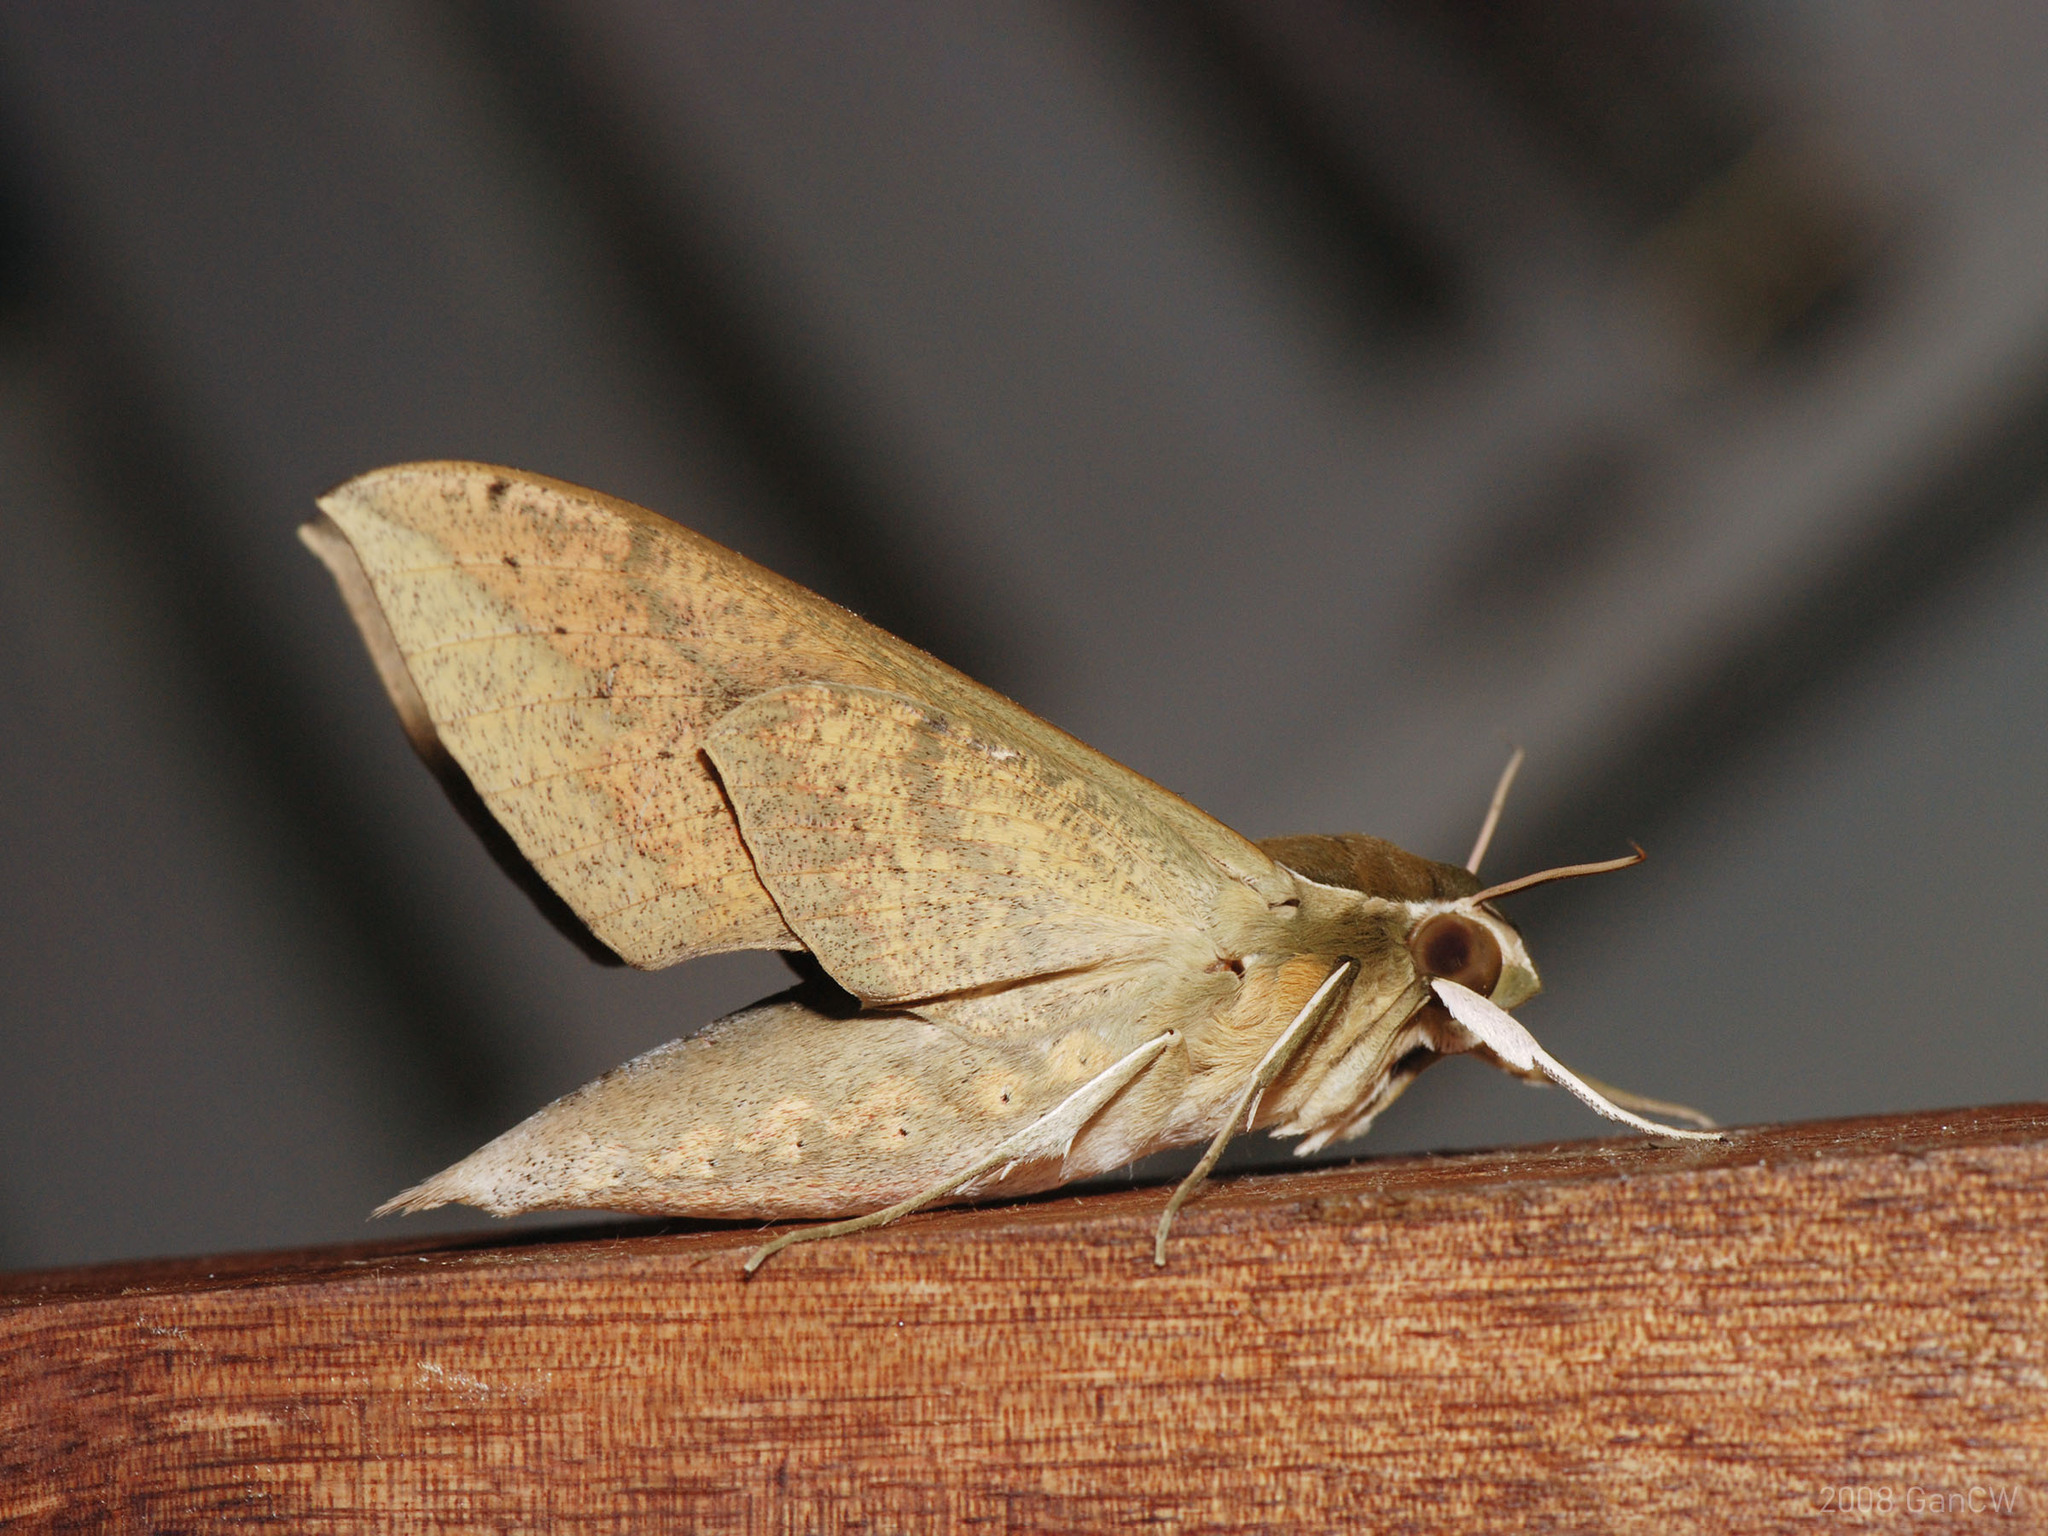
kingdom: Animalia
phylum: Arthropoda
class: Insecta
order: Lepidoptera
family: Sphingidae
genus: Theretra
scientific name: Theretra boisduvalii
